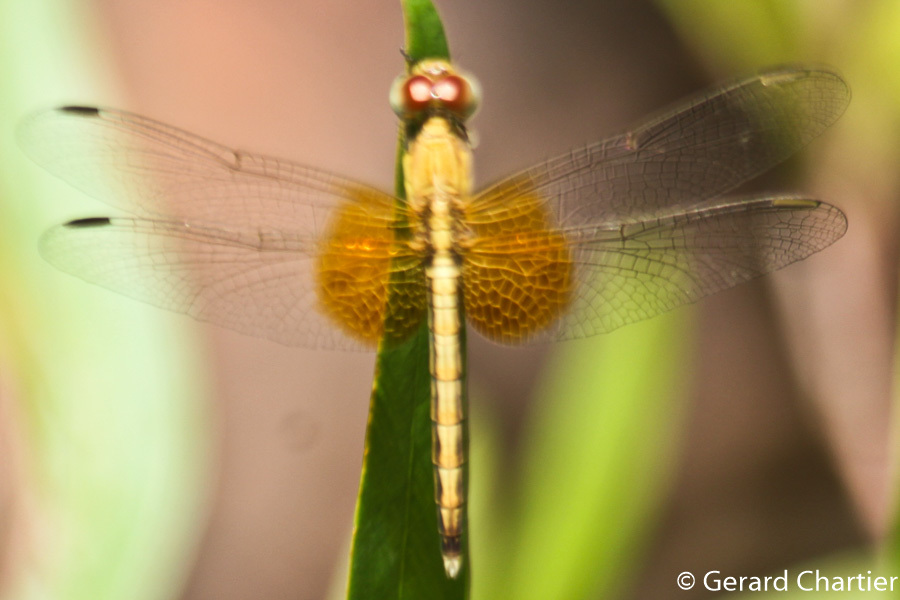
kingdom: Animalia
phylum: Arthropoda
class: Insecta
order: Odonata
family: Libellulidae
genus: Neurothemis
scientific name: Neurothemis intermedia
